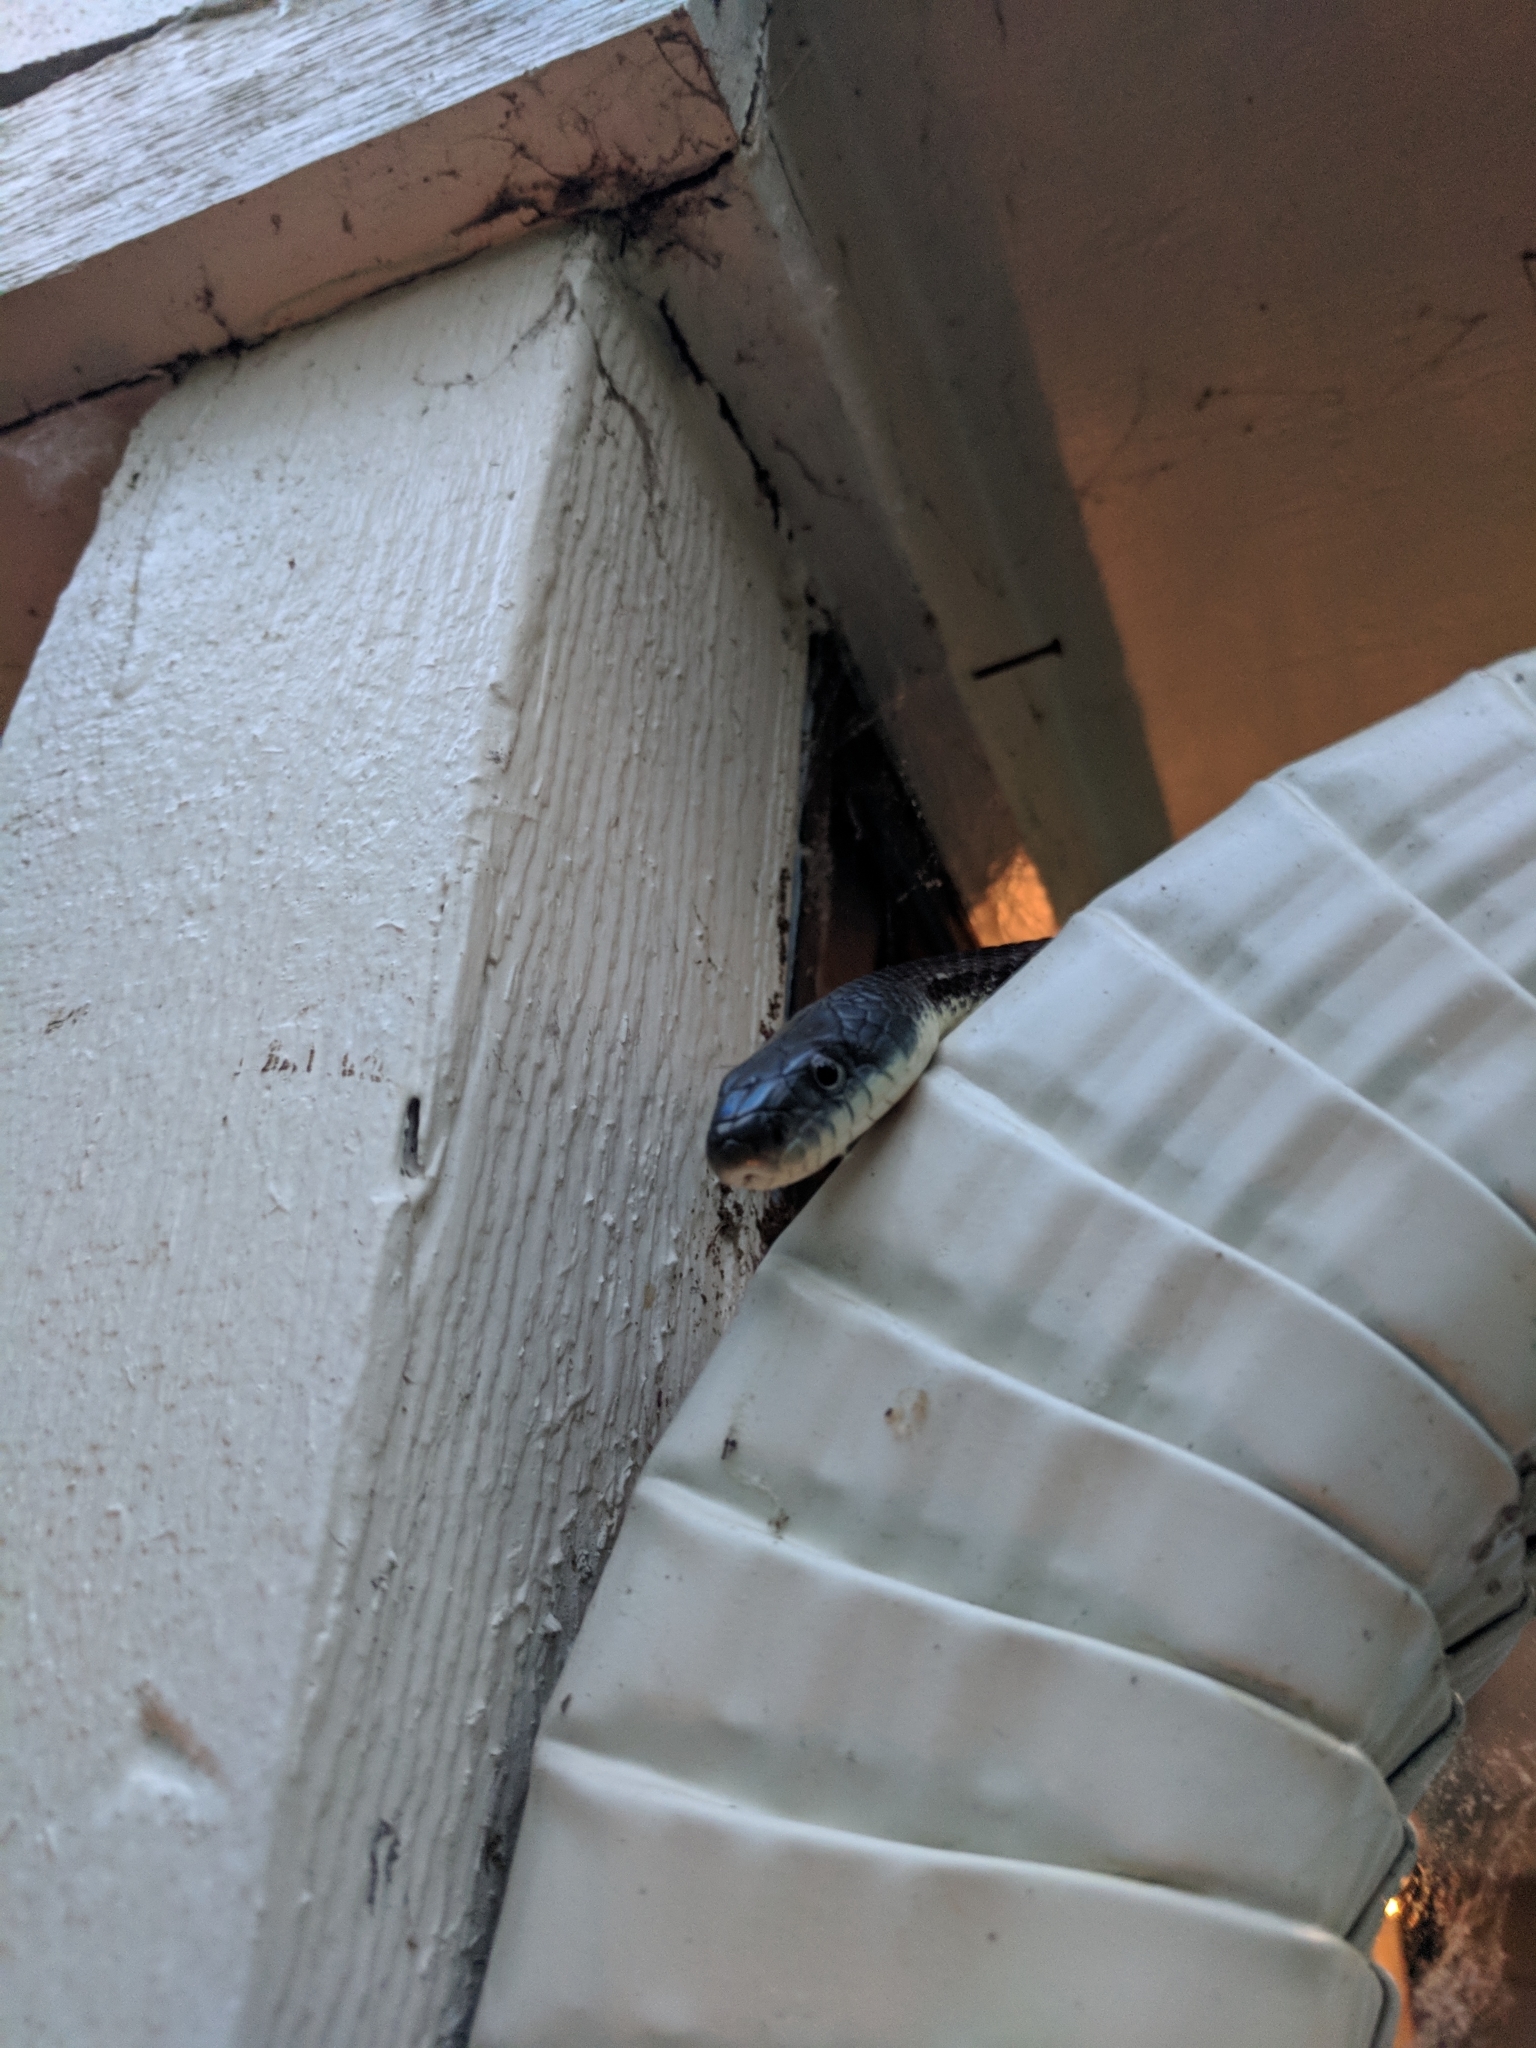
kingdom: Animalia
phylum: Chordata
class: Squamata
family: Colubridae
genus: Pantherophis
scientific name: Pantherophis spiloides
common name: Gray rat snake
